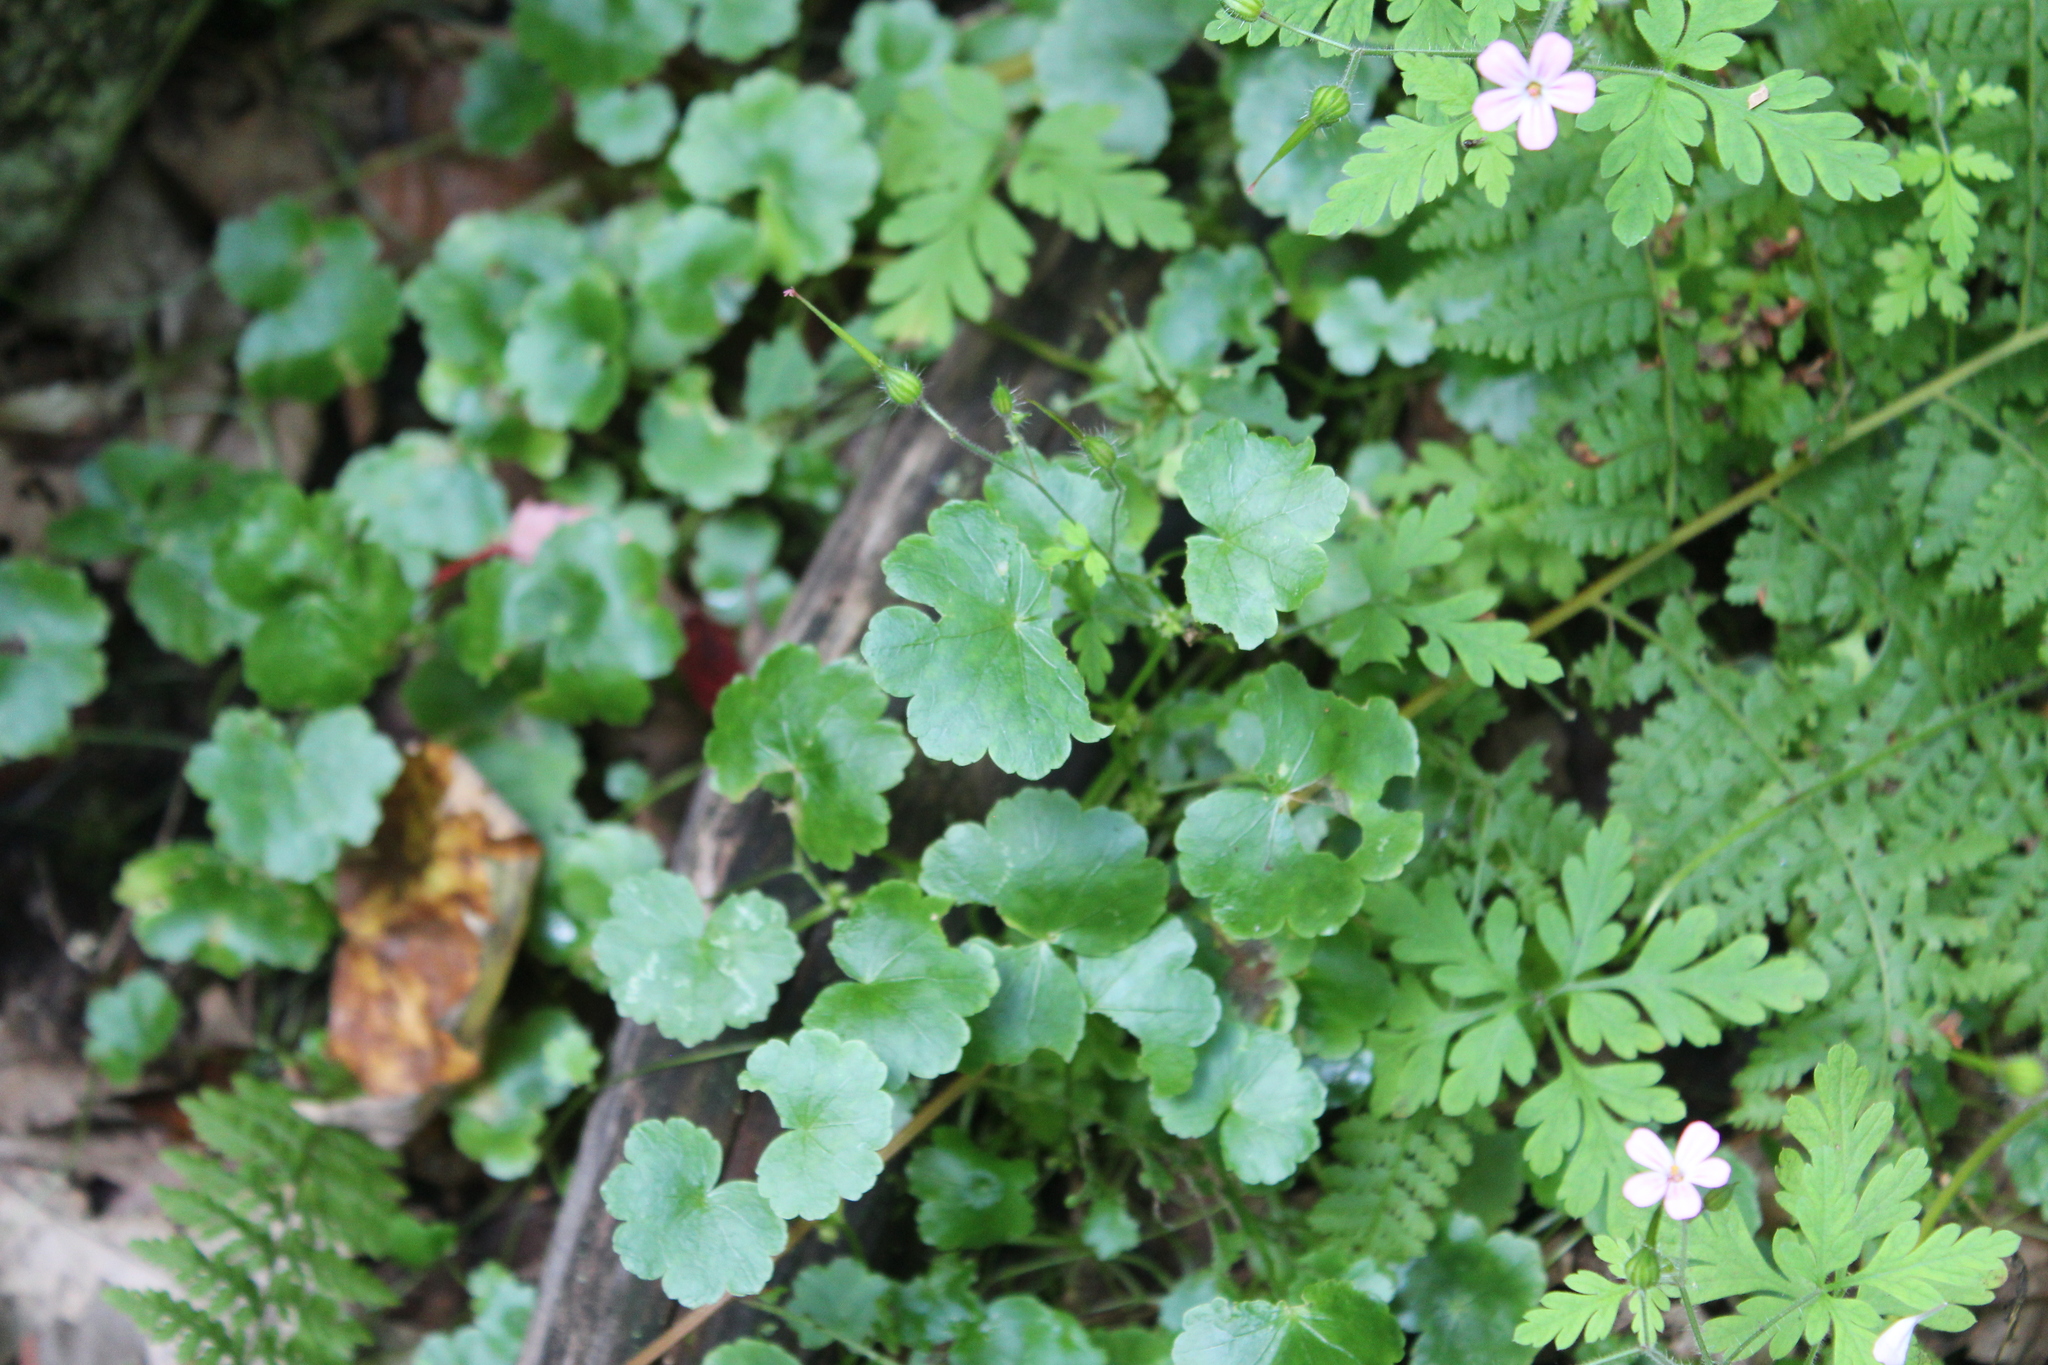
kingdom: Plantae
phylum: Tracheophyta
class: Magnoliopsida
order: Apiales
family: Araliaceae
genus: Hydrocotyle
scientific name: Hydrocotyle americana
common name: American water-pennywort
